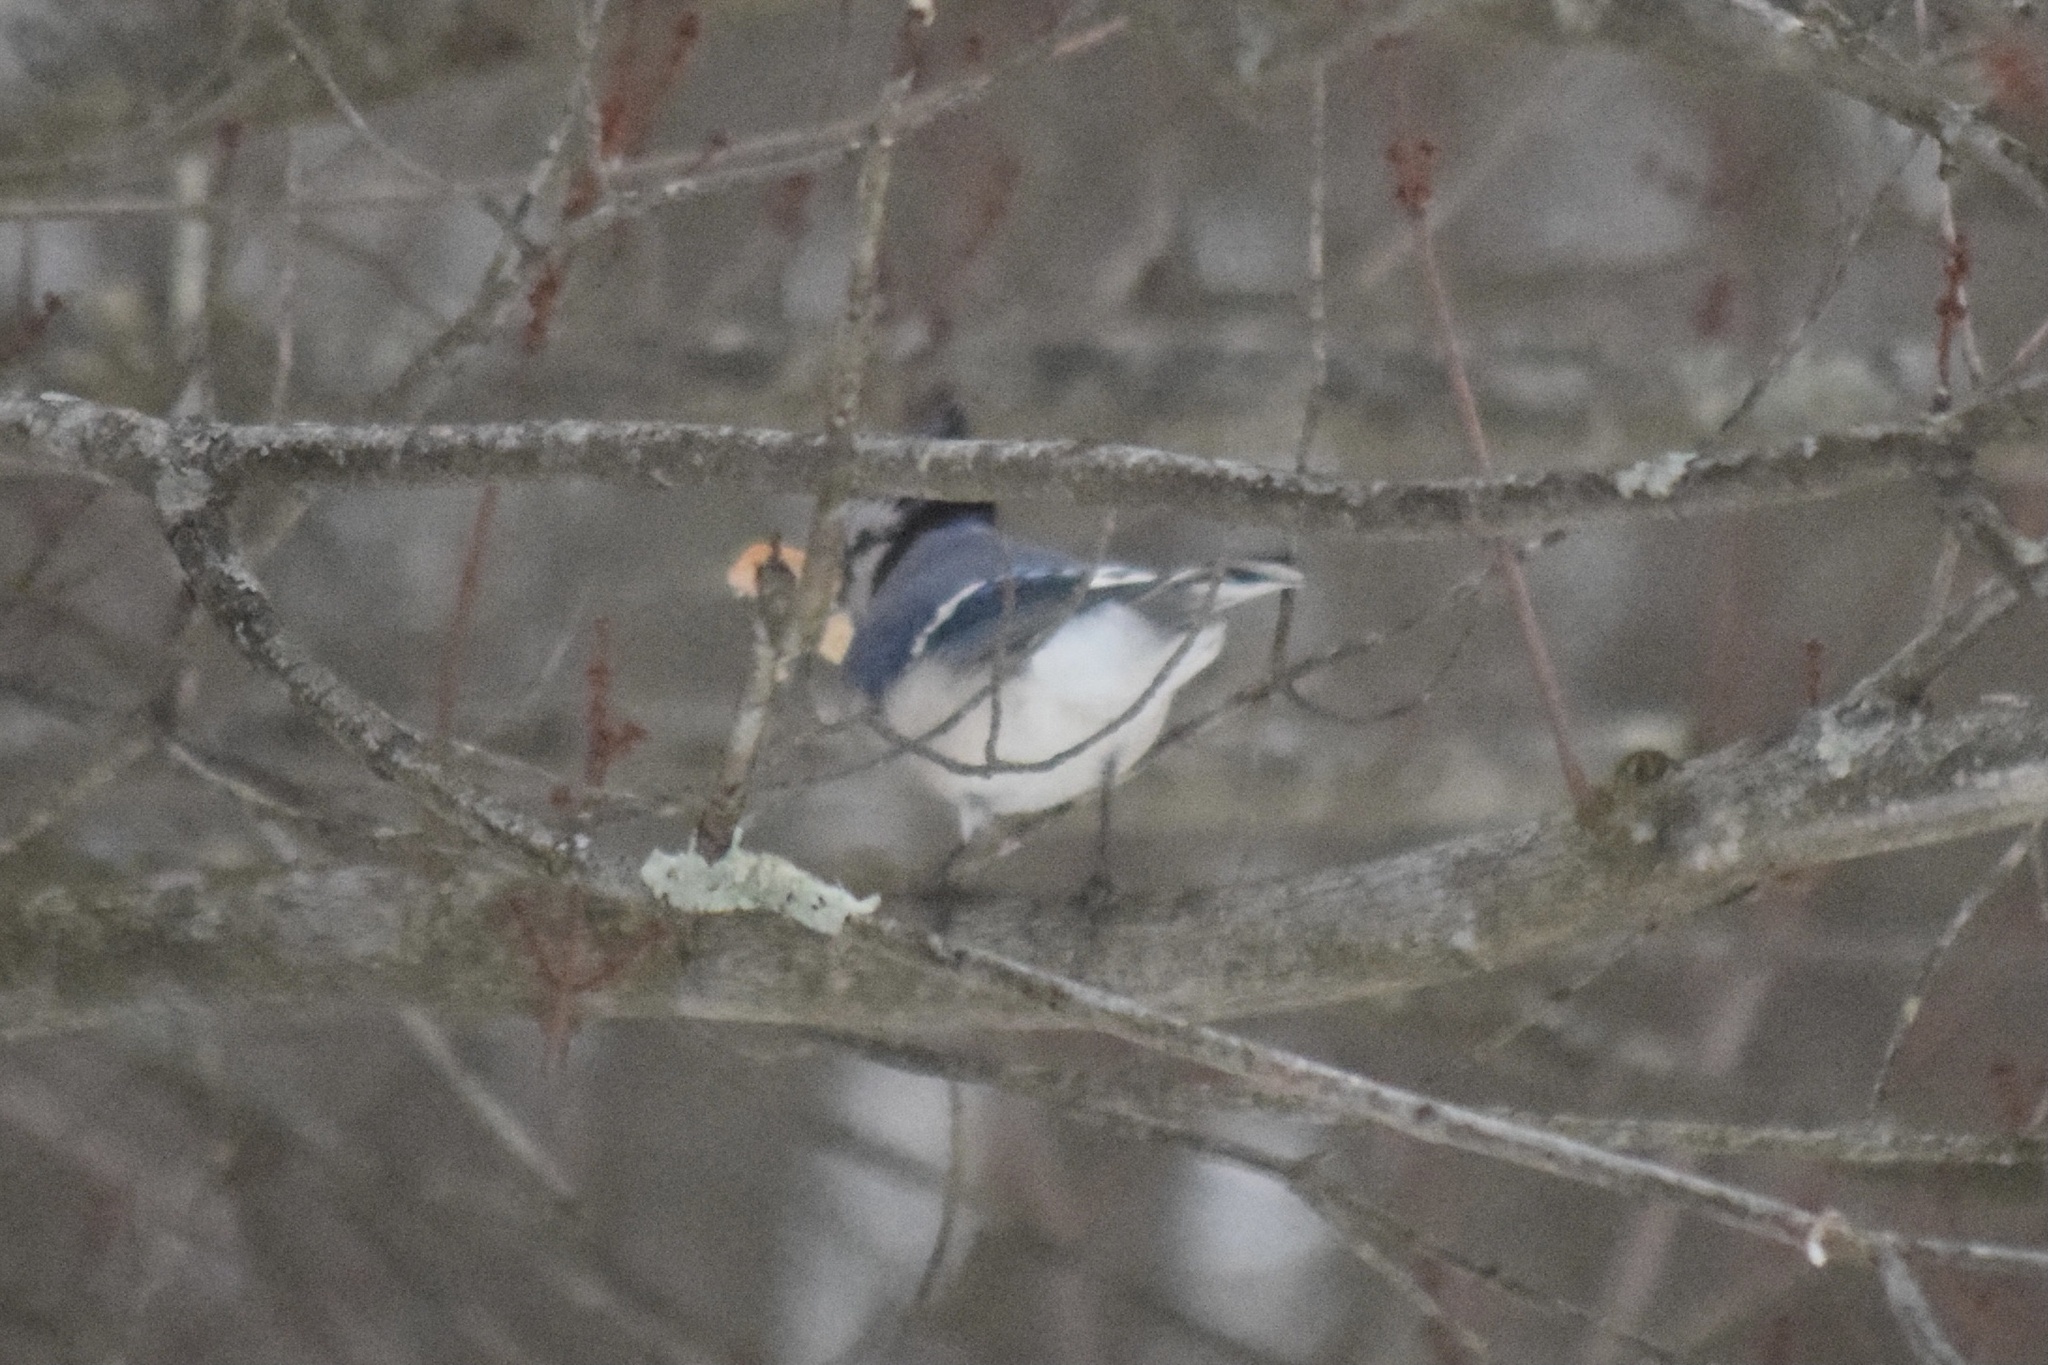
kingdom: Animalia
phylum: Chordata
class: Aves
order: Passeriformes
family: Corvidae
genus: Cyanocitta
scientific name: Cyanocitta cristata
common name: Blue jay
